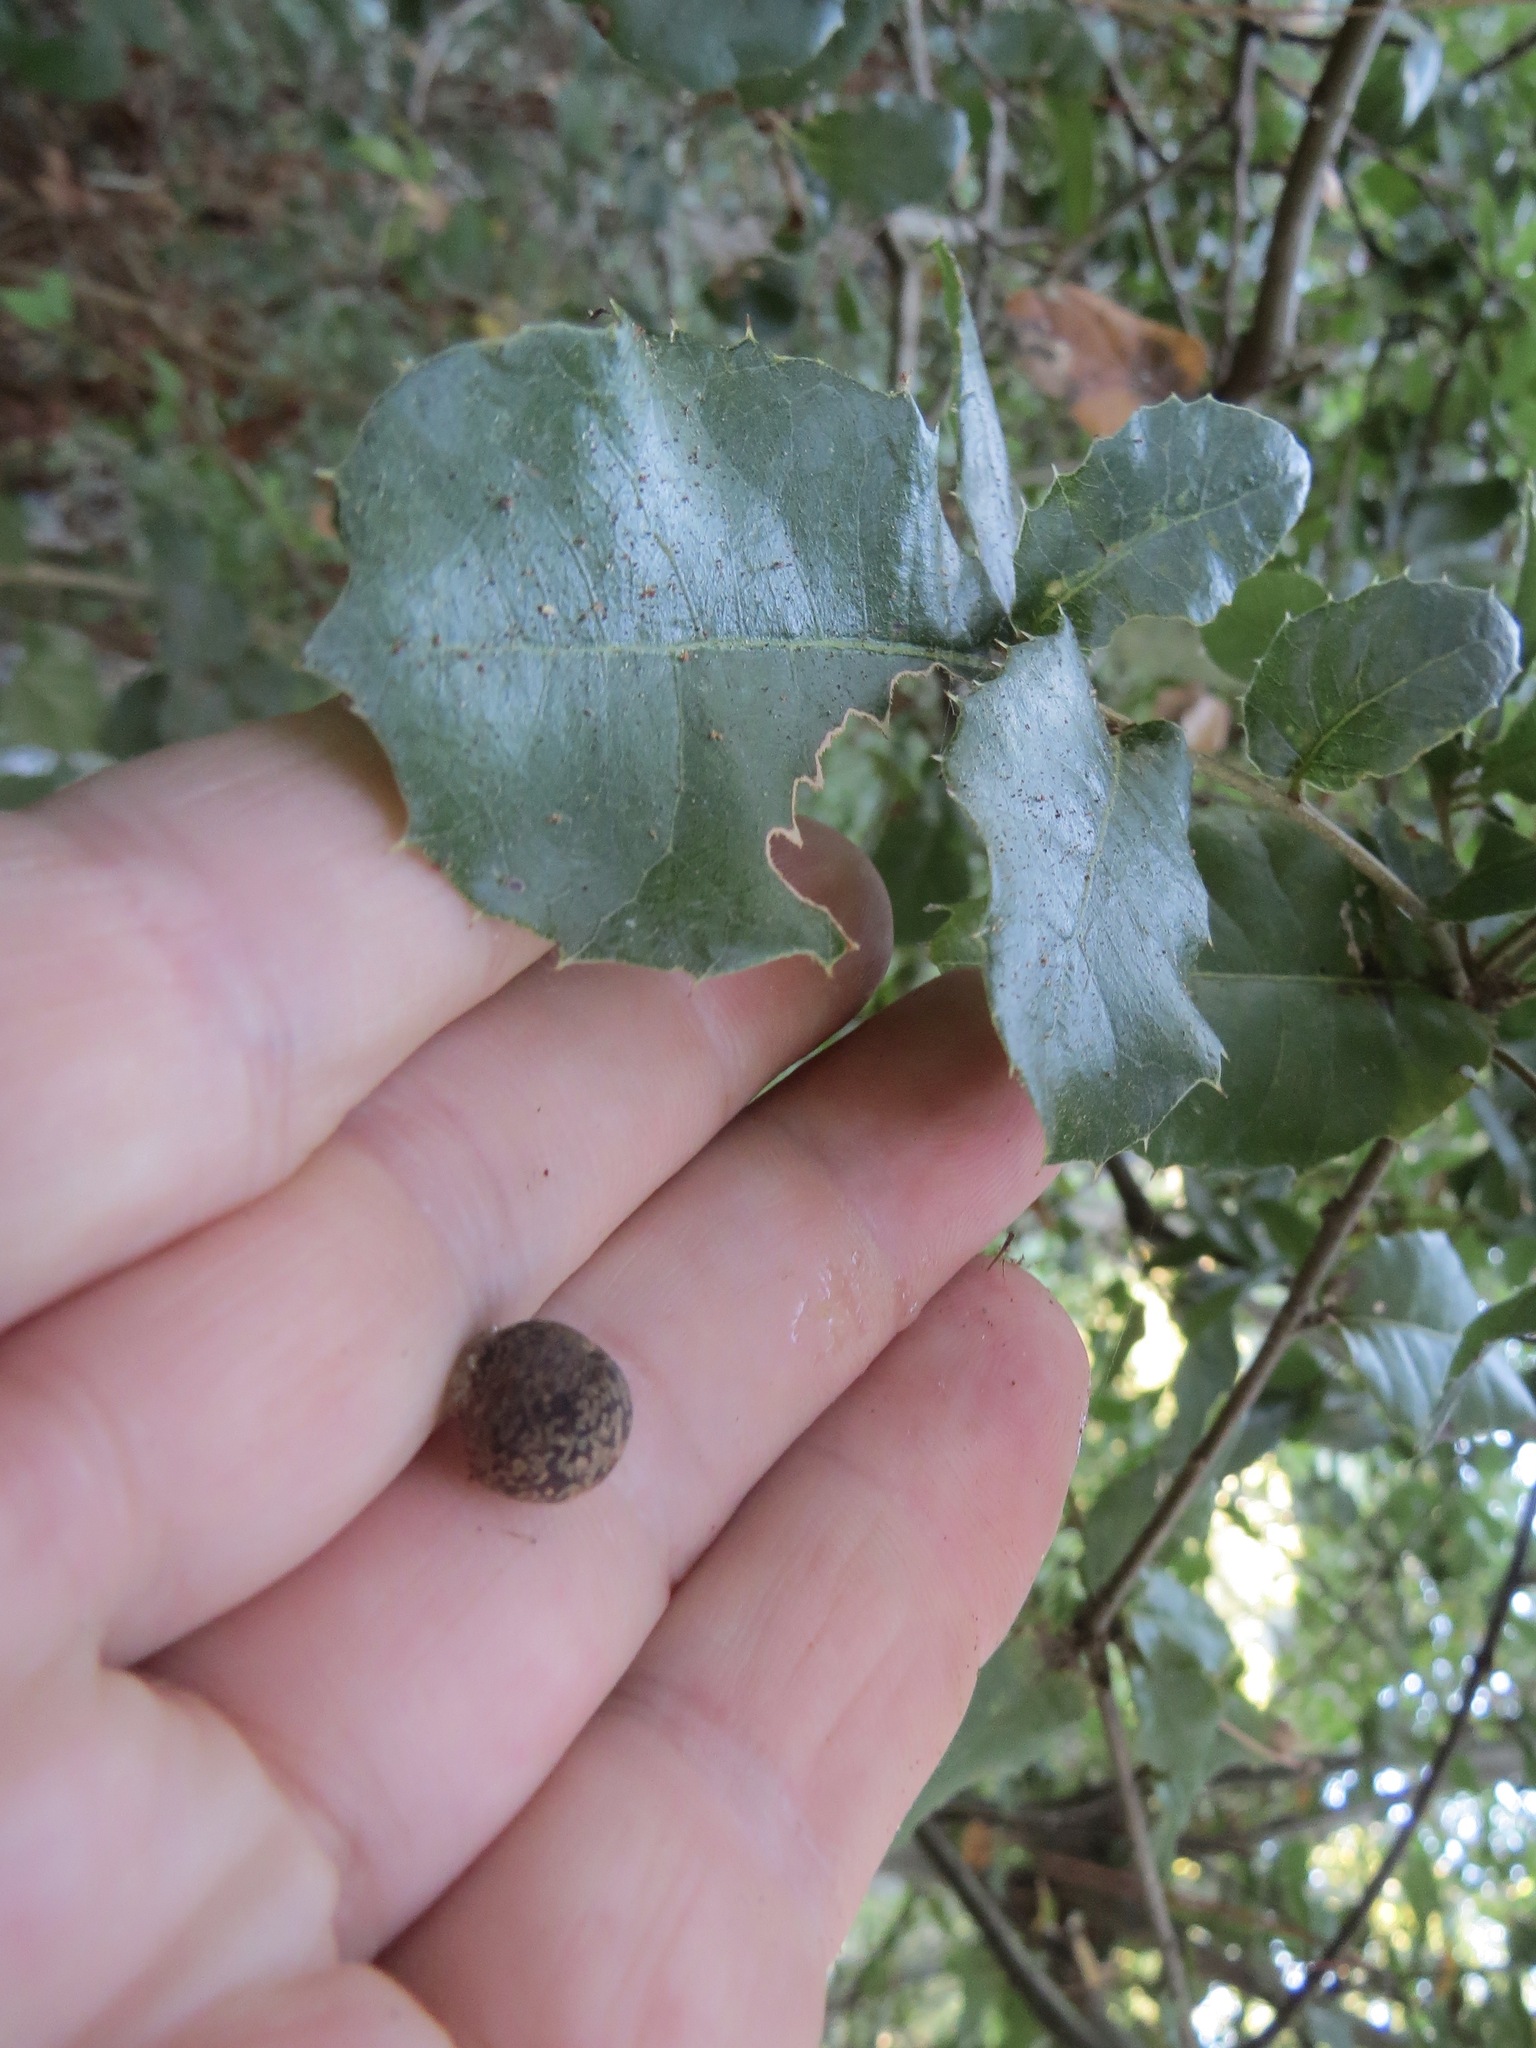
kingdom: Animalia
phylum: Arthropoda
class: Insecta
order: Hymenoptera
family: Cynipidae
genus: Callirhytis
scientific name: Callirhytis
